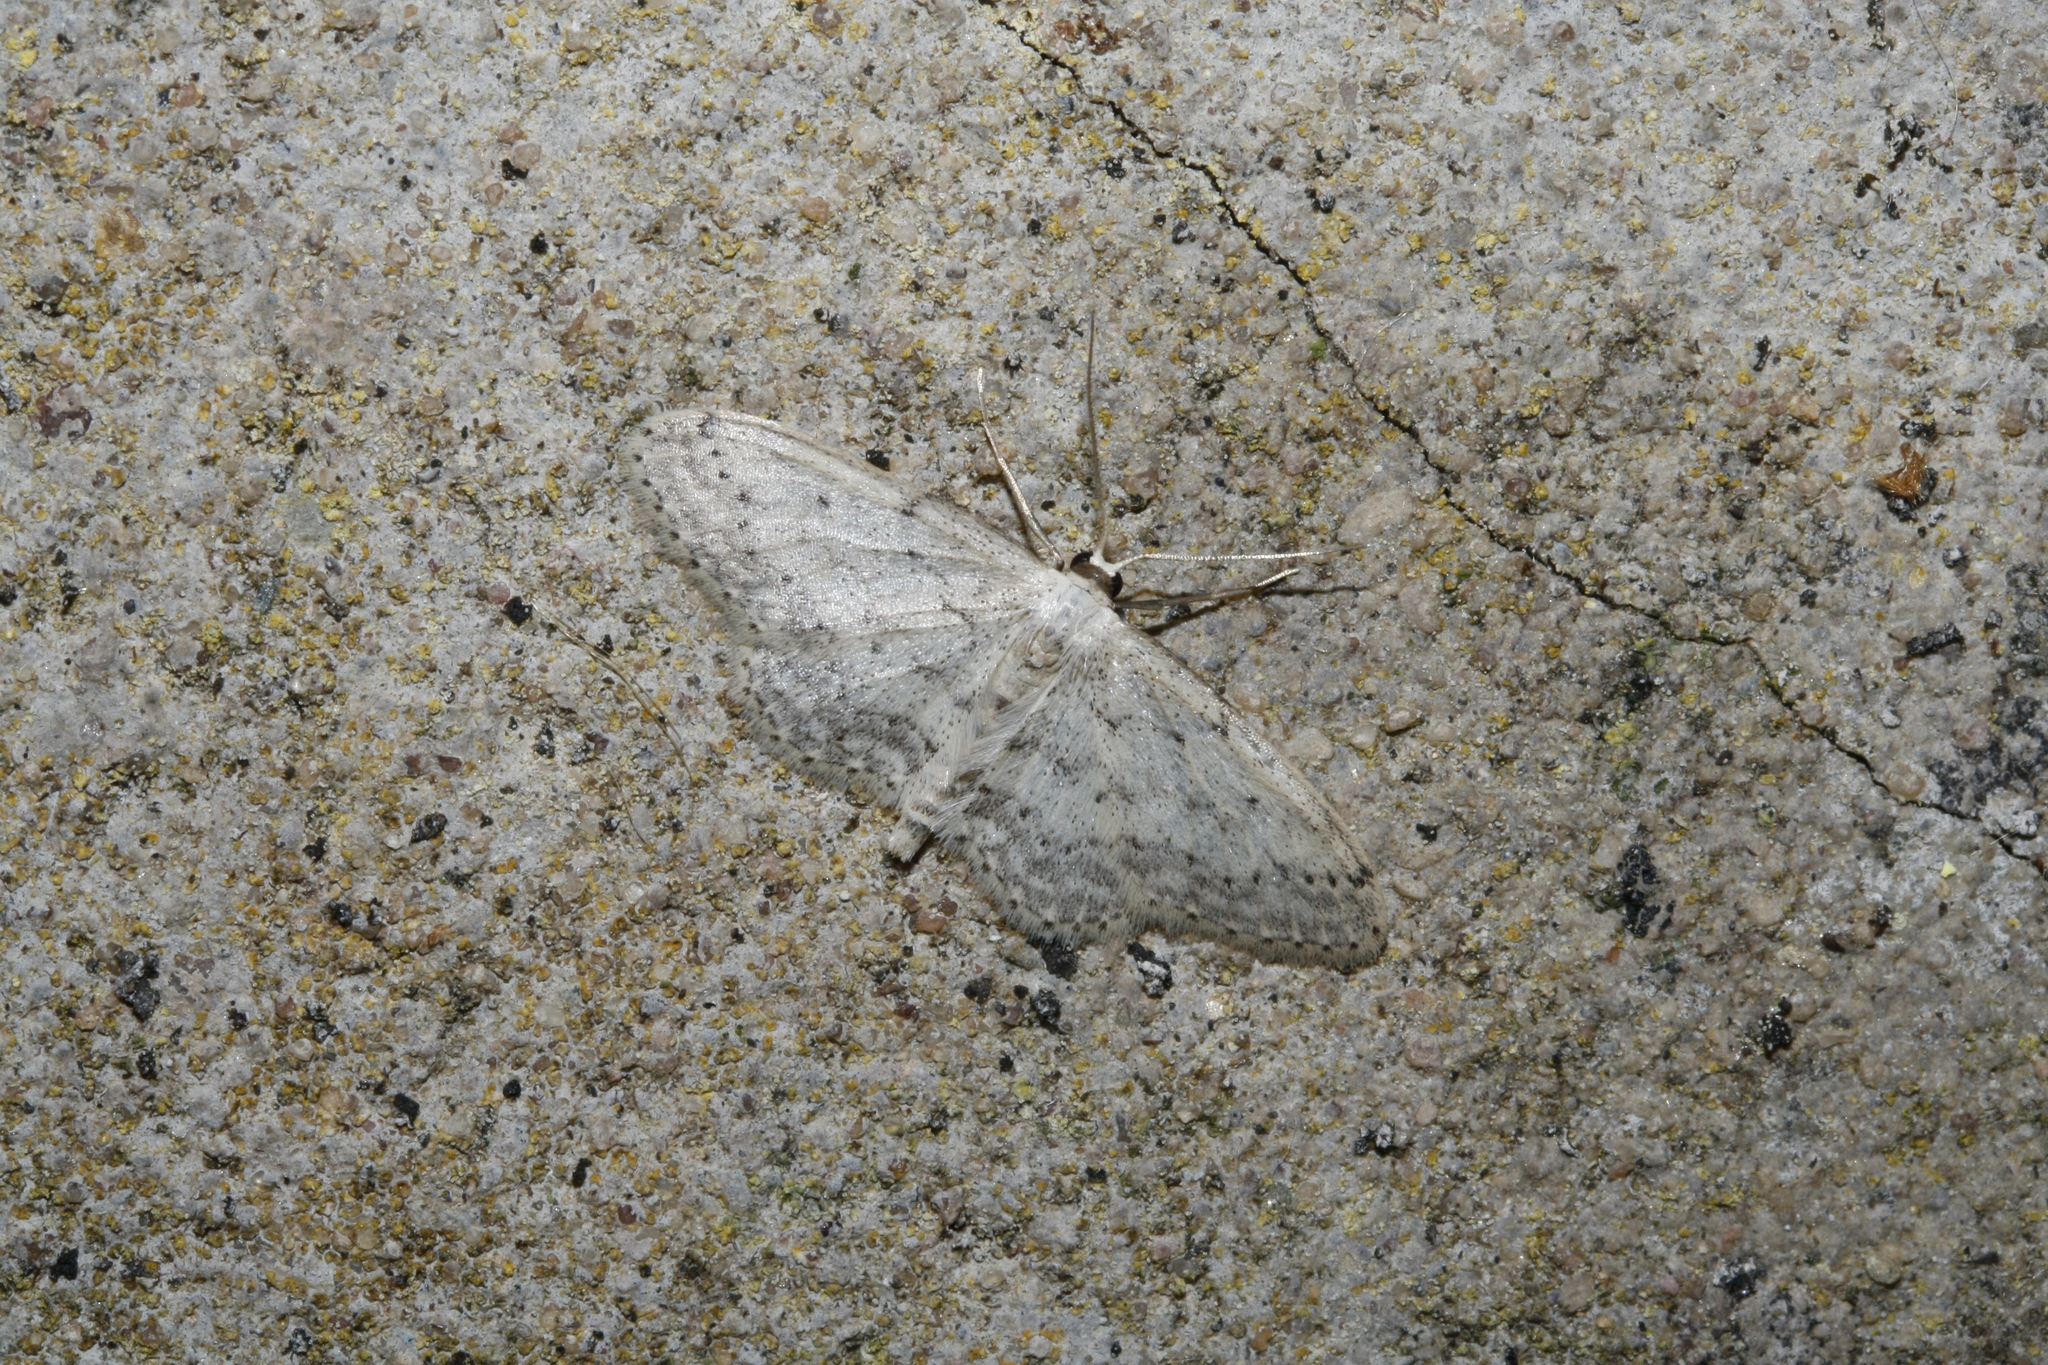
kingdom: Animalia
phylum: Arthropoda
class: Insecta
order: Lepidoptera
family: Geometridae
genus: Idaea
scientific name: Idaea seriata
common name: Small dusty wave
